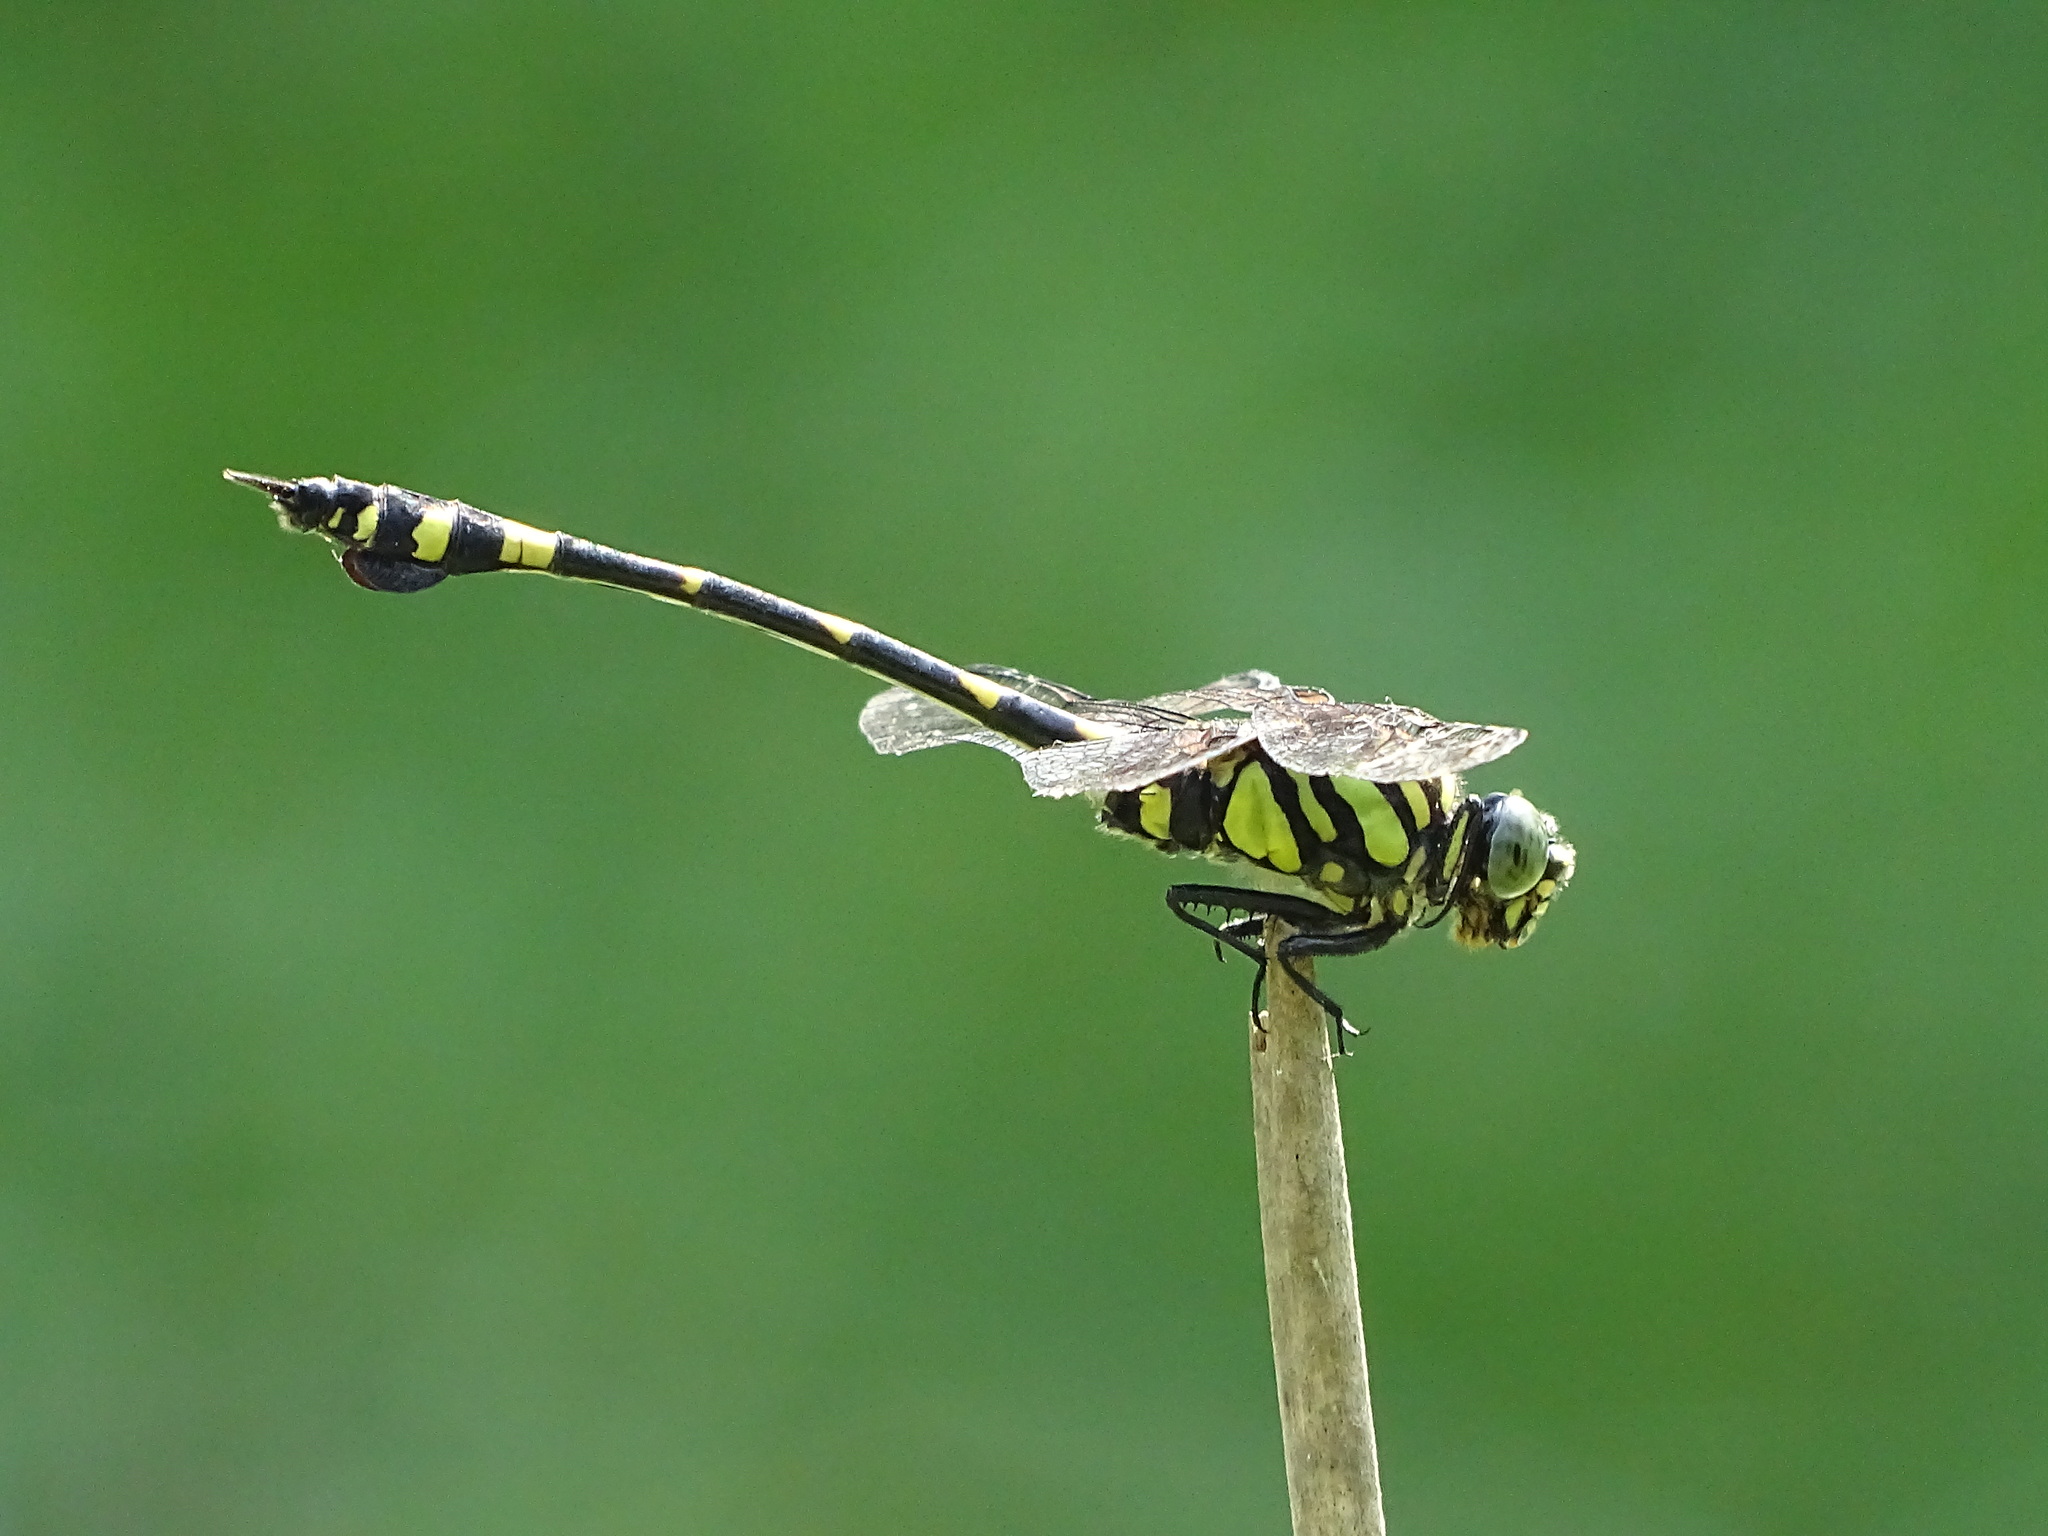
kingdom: Animalia
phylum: Arthropoda
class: Insecta
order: Odonata
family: Gomphidae
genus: Ictinogomphus
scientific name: Ictinogomphus rapax
